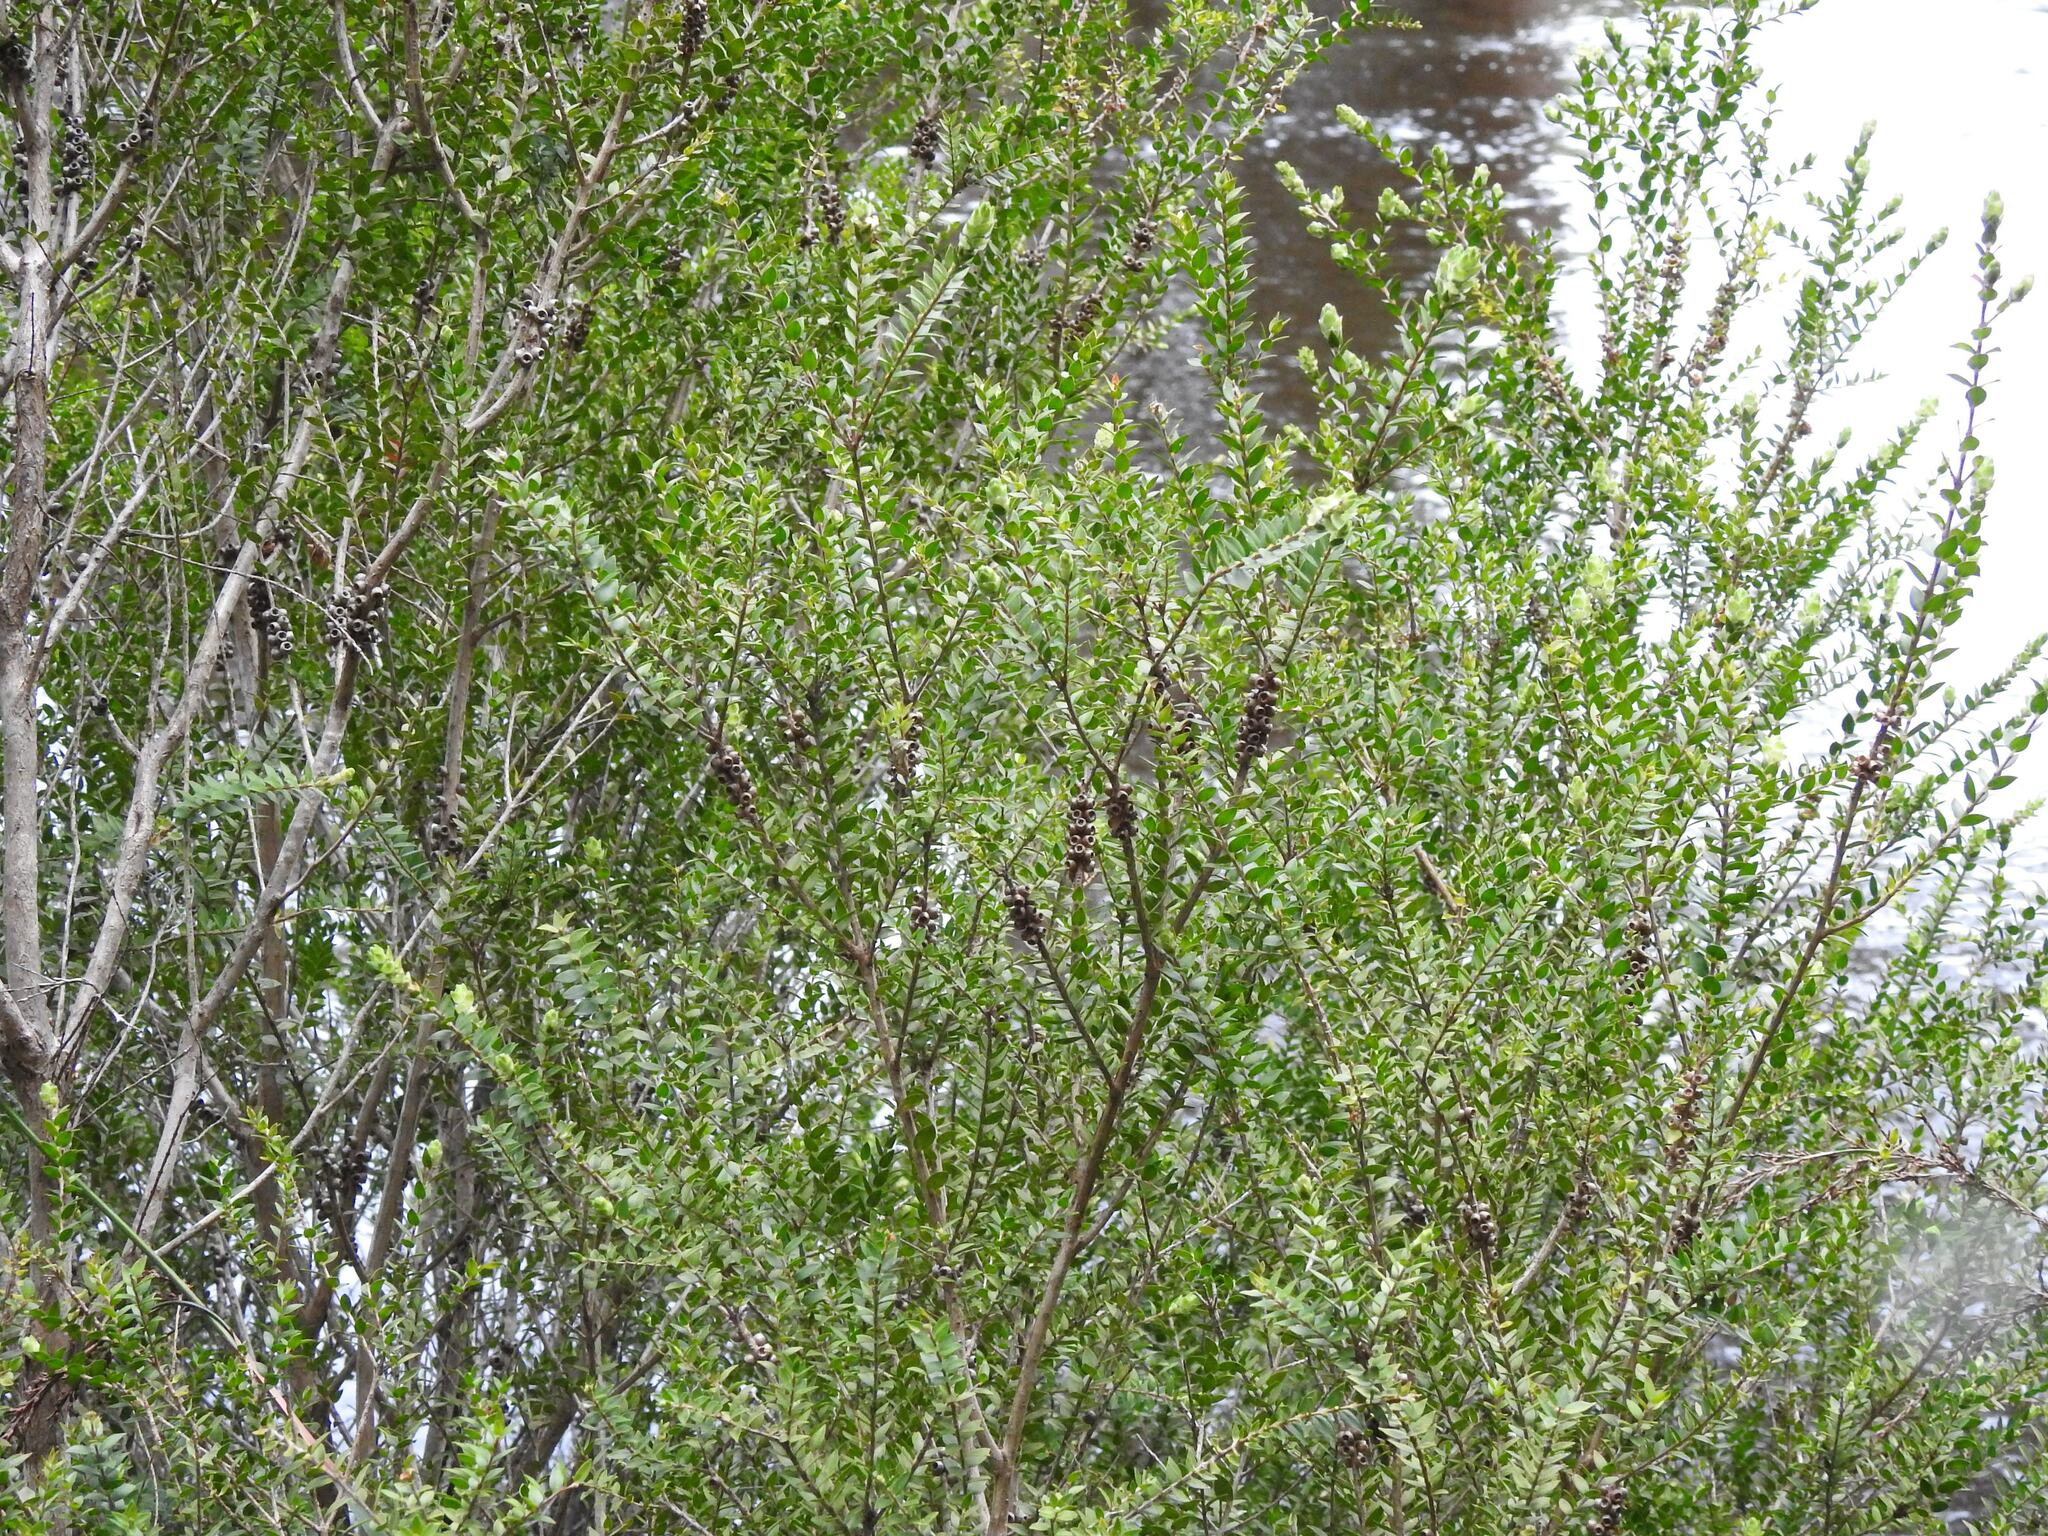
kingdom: Plantae
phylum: Tracheophyta
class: Magnoliopsida
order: Myrtales
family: Myrtaceae
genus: Melaleuca
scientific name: Melaleuca squarrosa
